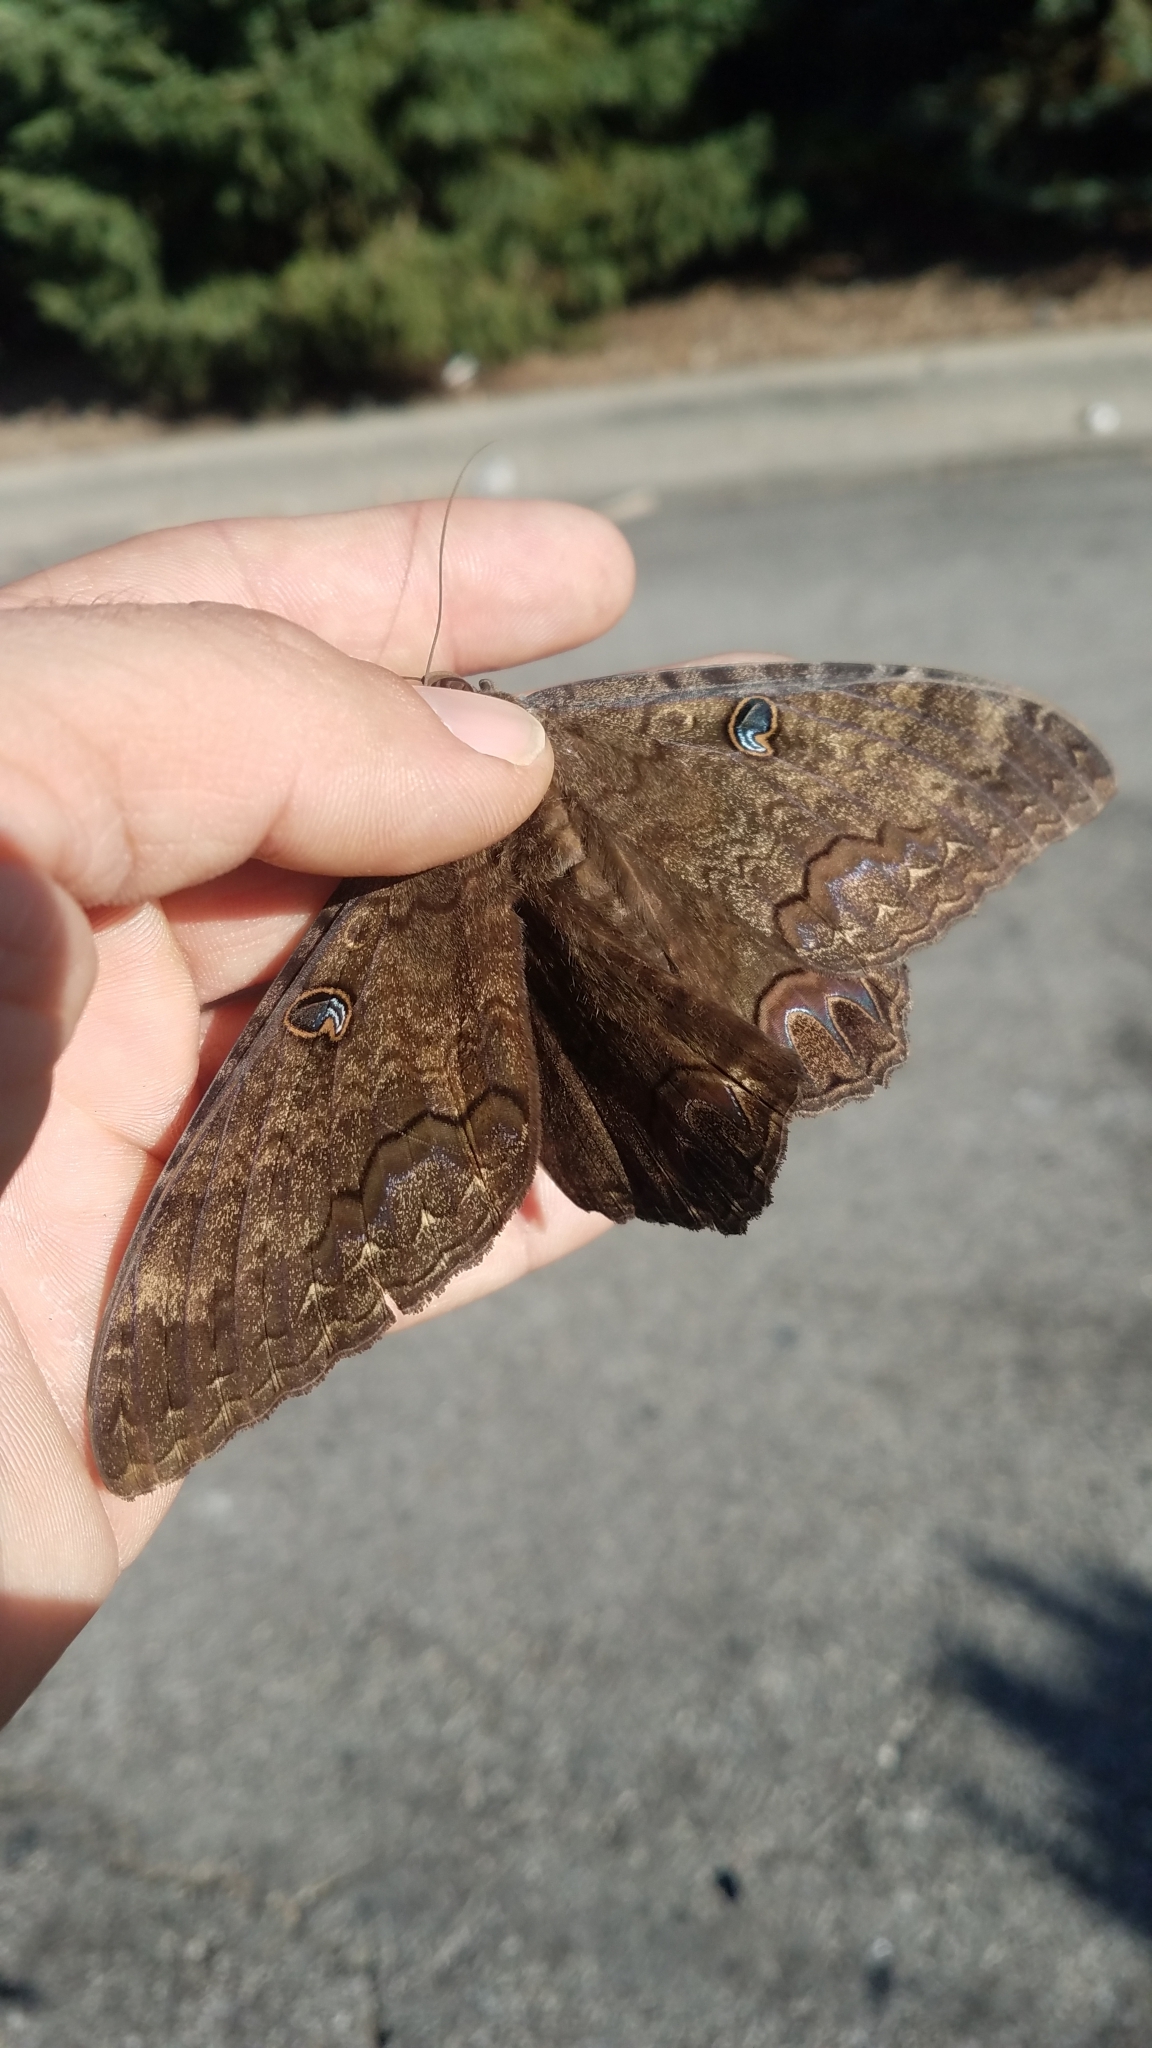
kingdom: Animalia
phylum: Arthropoda
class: Insecta
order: Lepidoptera
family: Erebidae
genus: Ascalapha
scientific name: Ascalapha odorata
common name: Black witch
